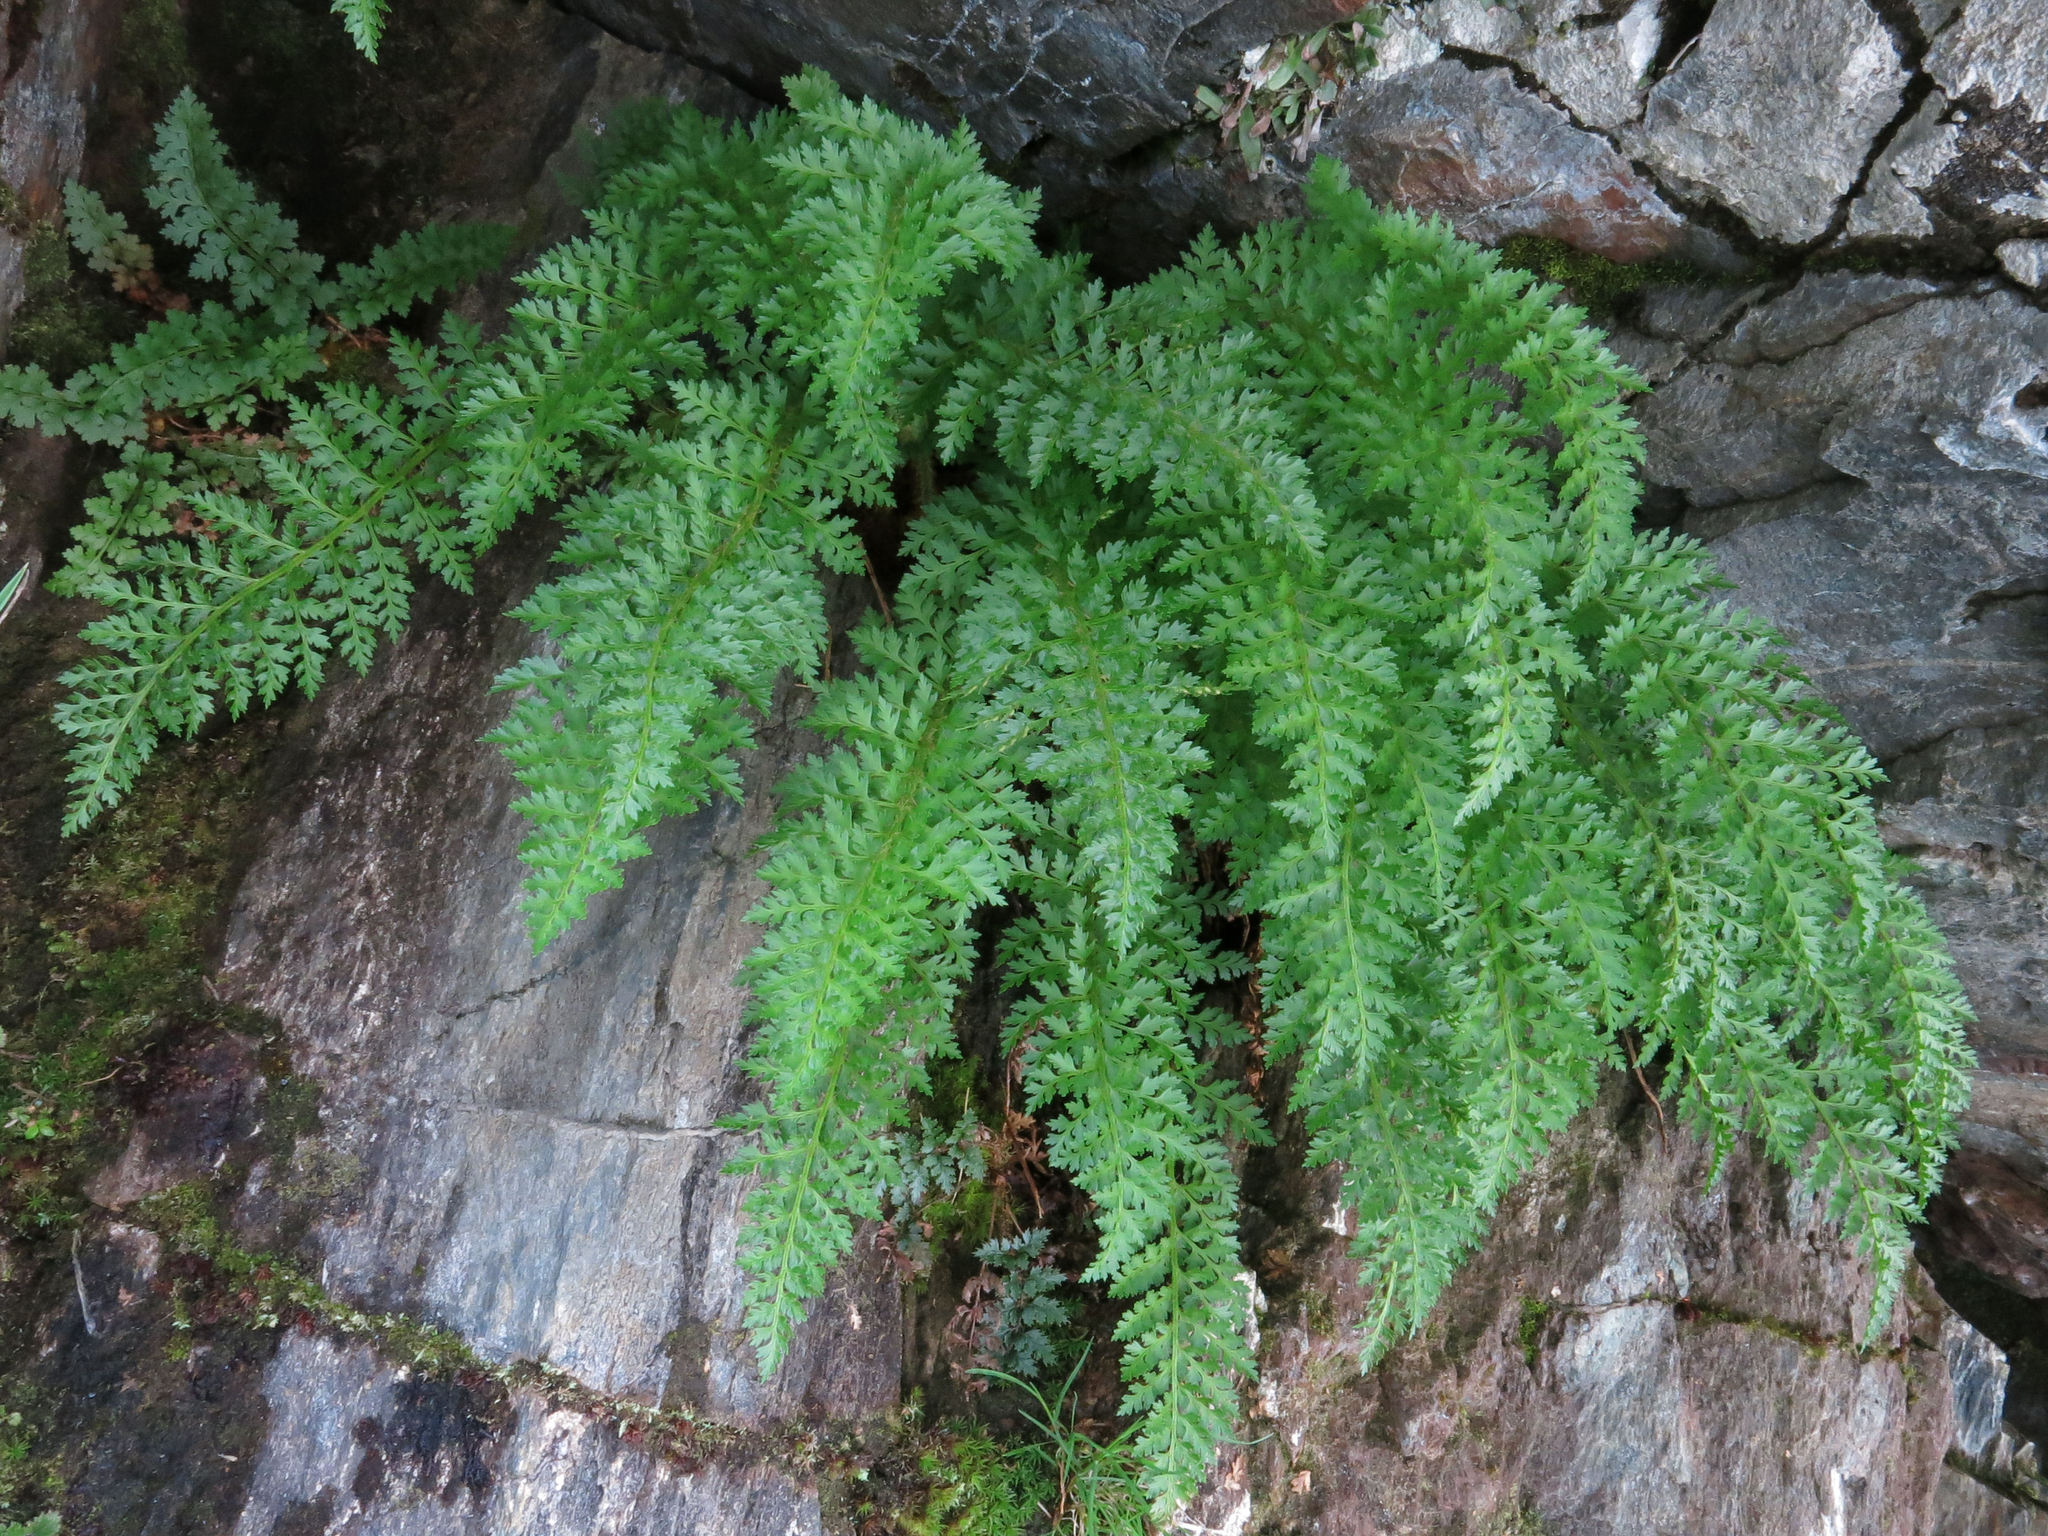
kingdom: Plantae
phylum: Tracheophyta
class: Polypodiopsida
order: Polypodiales
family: Dryopteridaceae
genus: Polystichum
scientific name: Polystichum cystostegia
